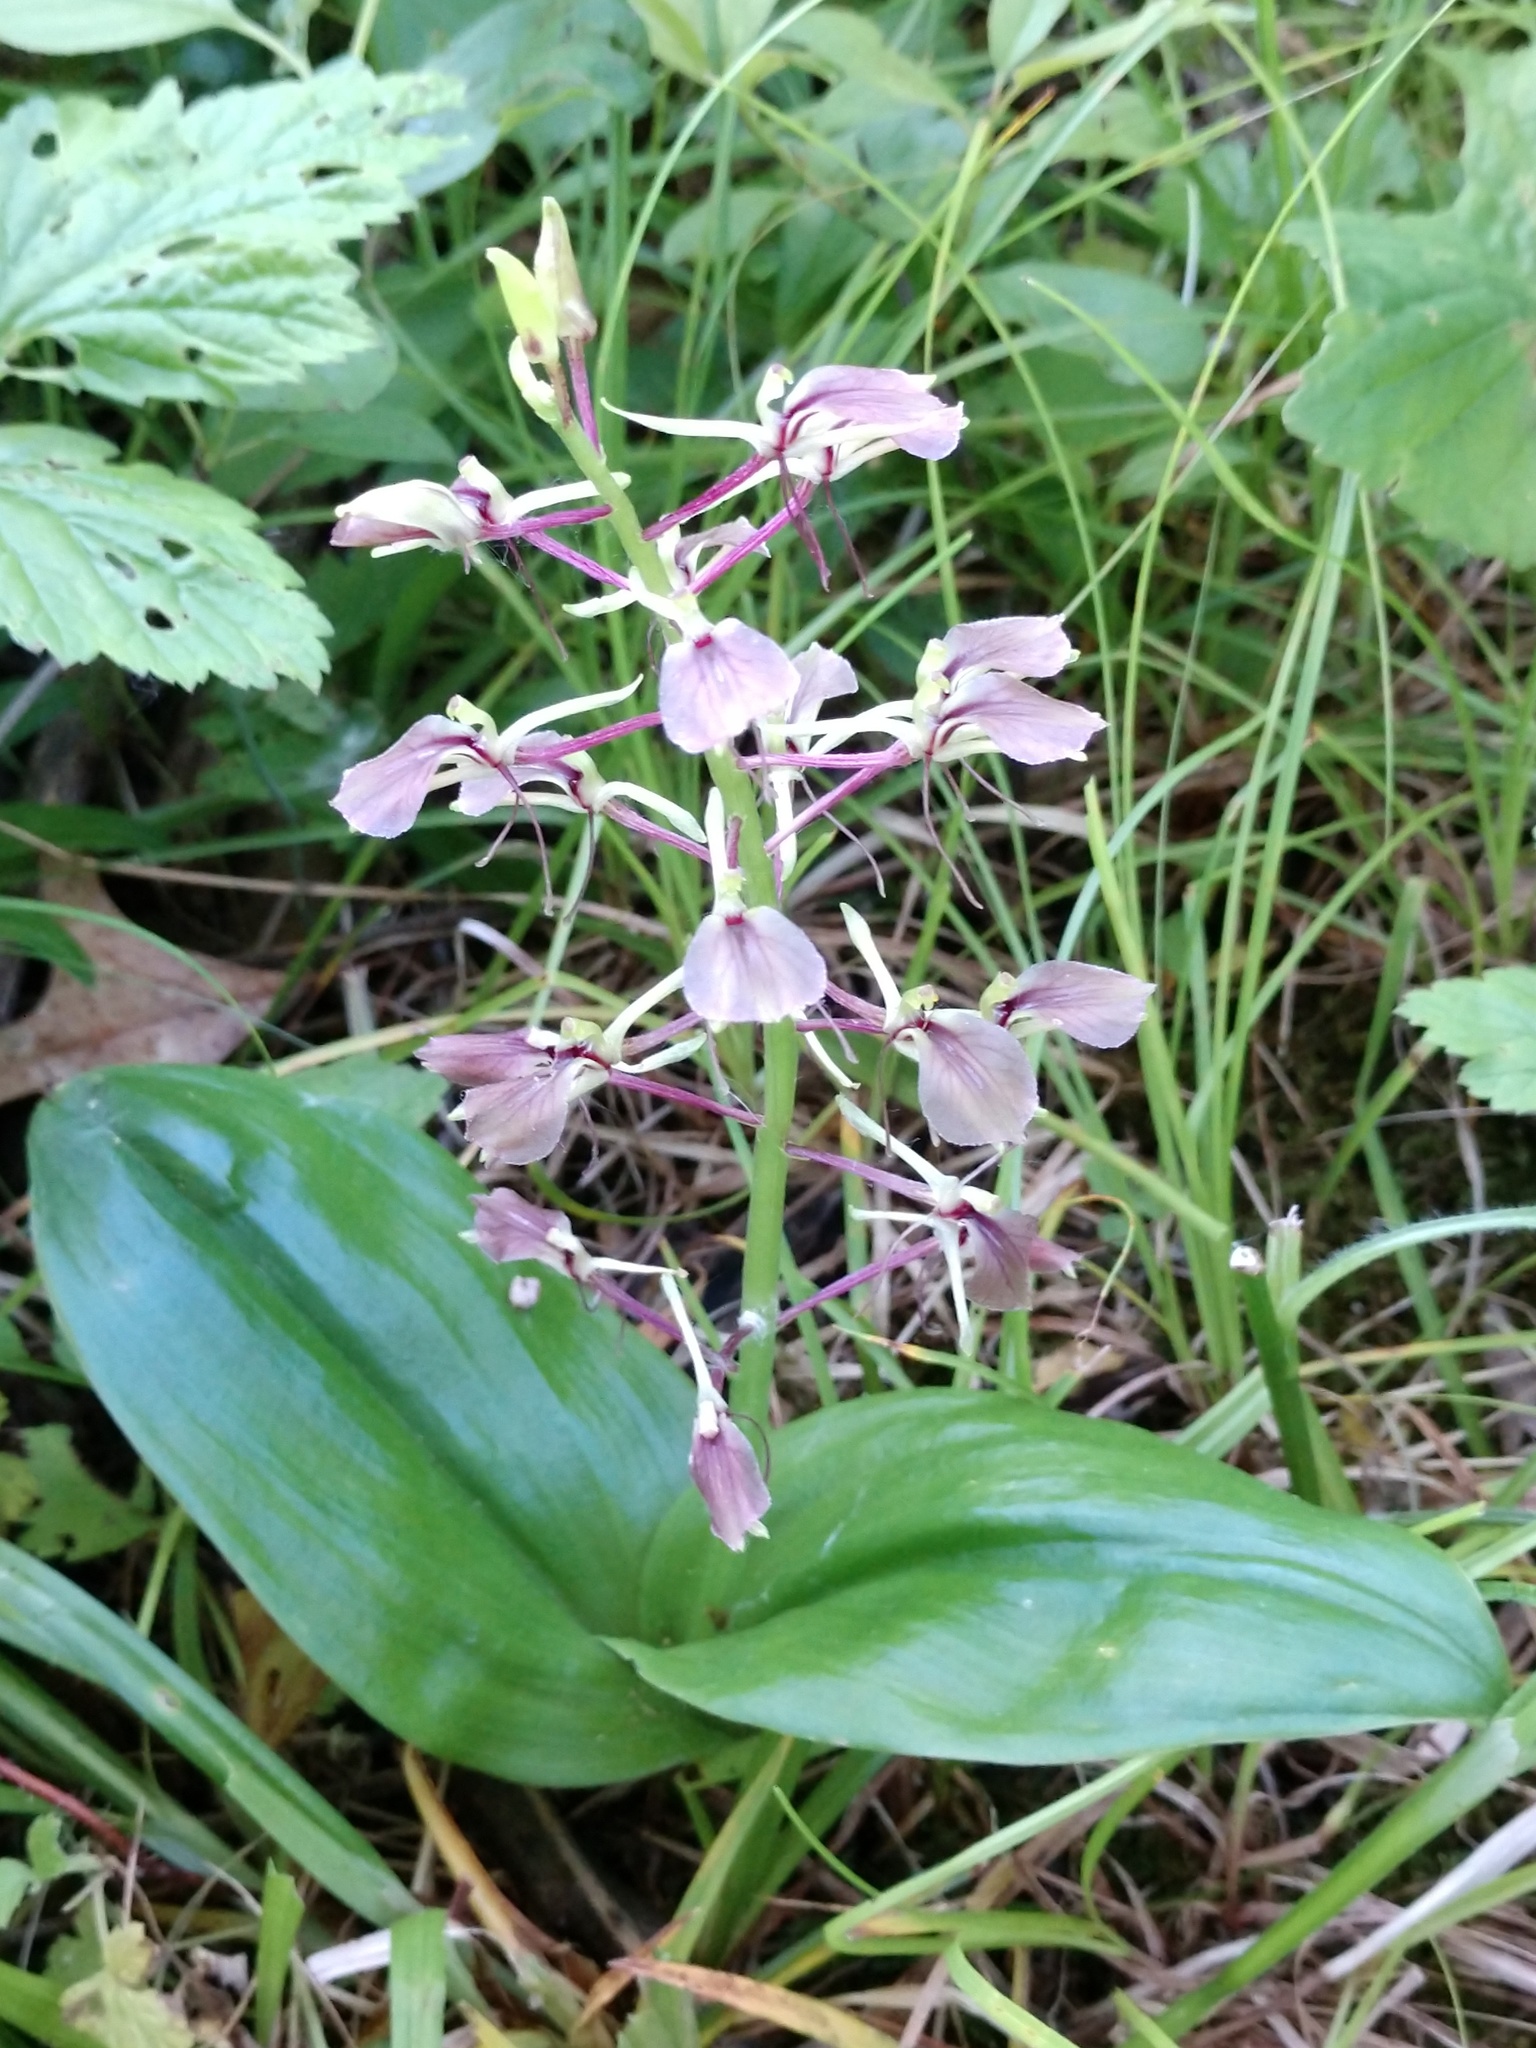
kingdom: Plantae
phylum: Tracheophyta
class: Liliopsida
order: Asparagales
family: Orchidaceae
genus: Liparis
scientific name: Liparis liliifolia
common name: Brown wide-lip orchid
